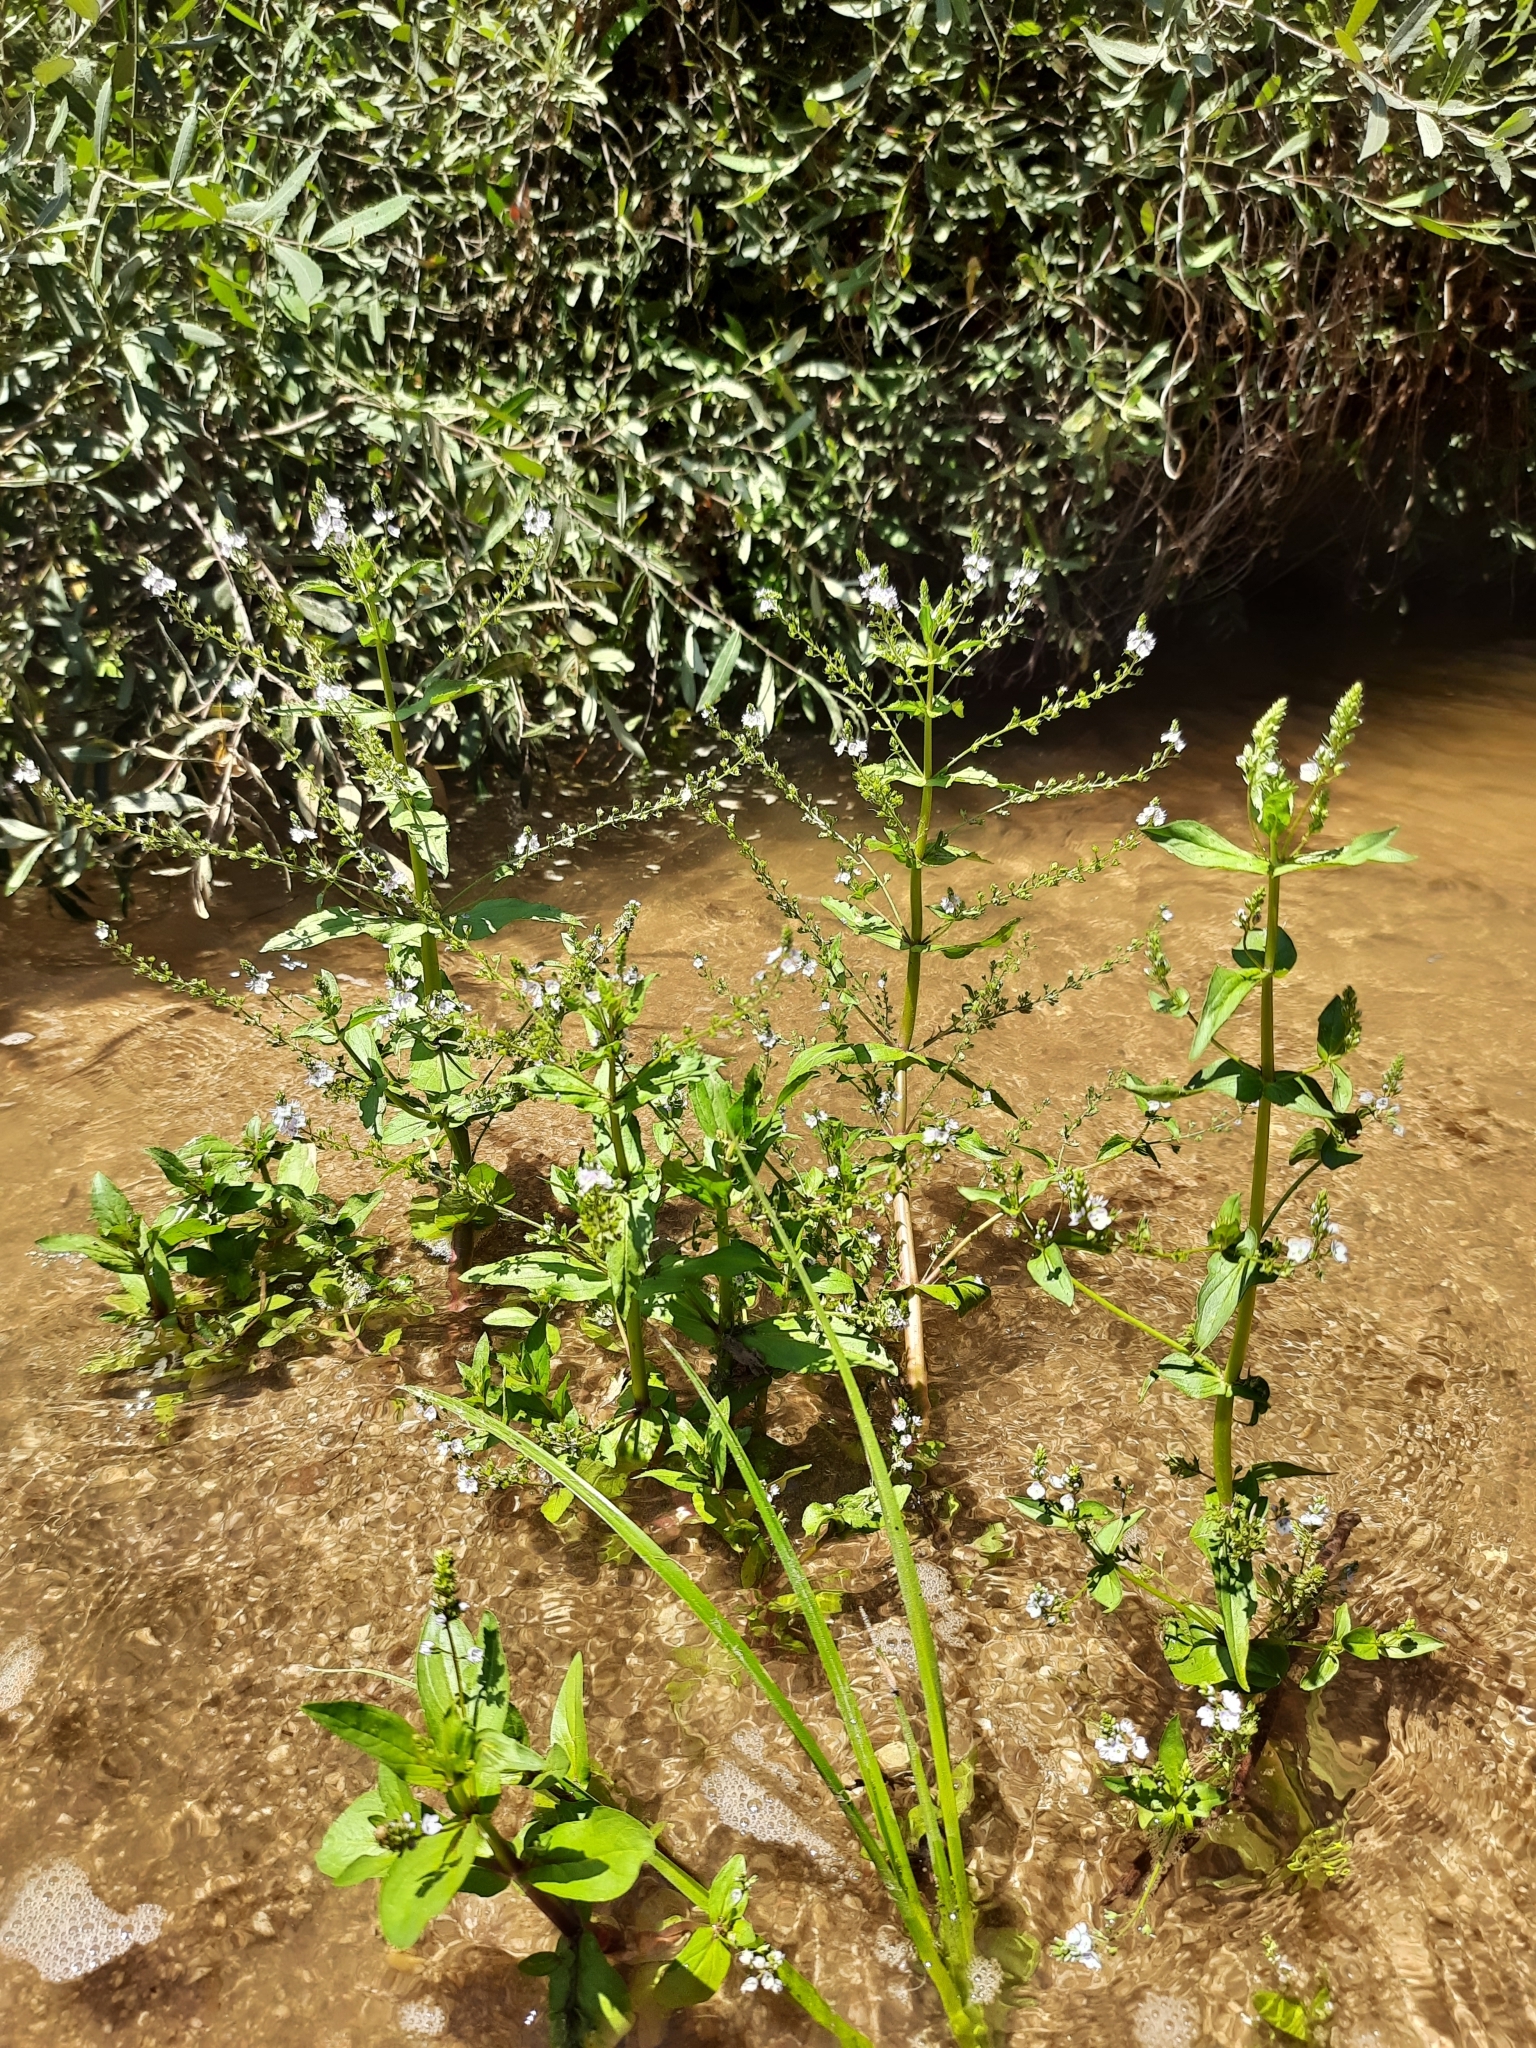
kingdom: Plantae
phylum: Tracheophyta
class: Magnoliopsida
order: Lamiales
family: Plantaginaceae
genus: Veronica
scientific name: Veronica anagallis-aquatica
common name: Water speedwell
